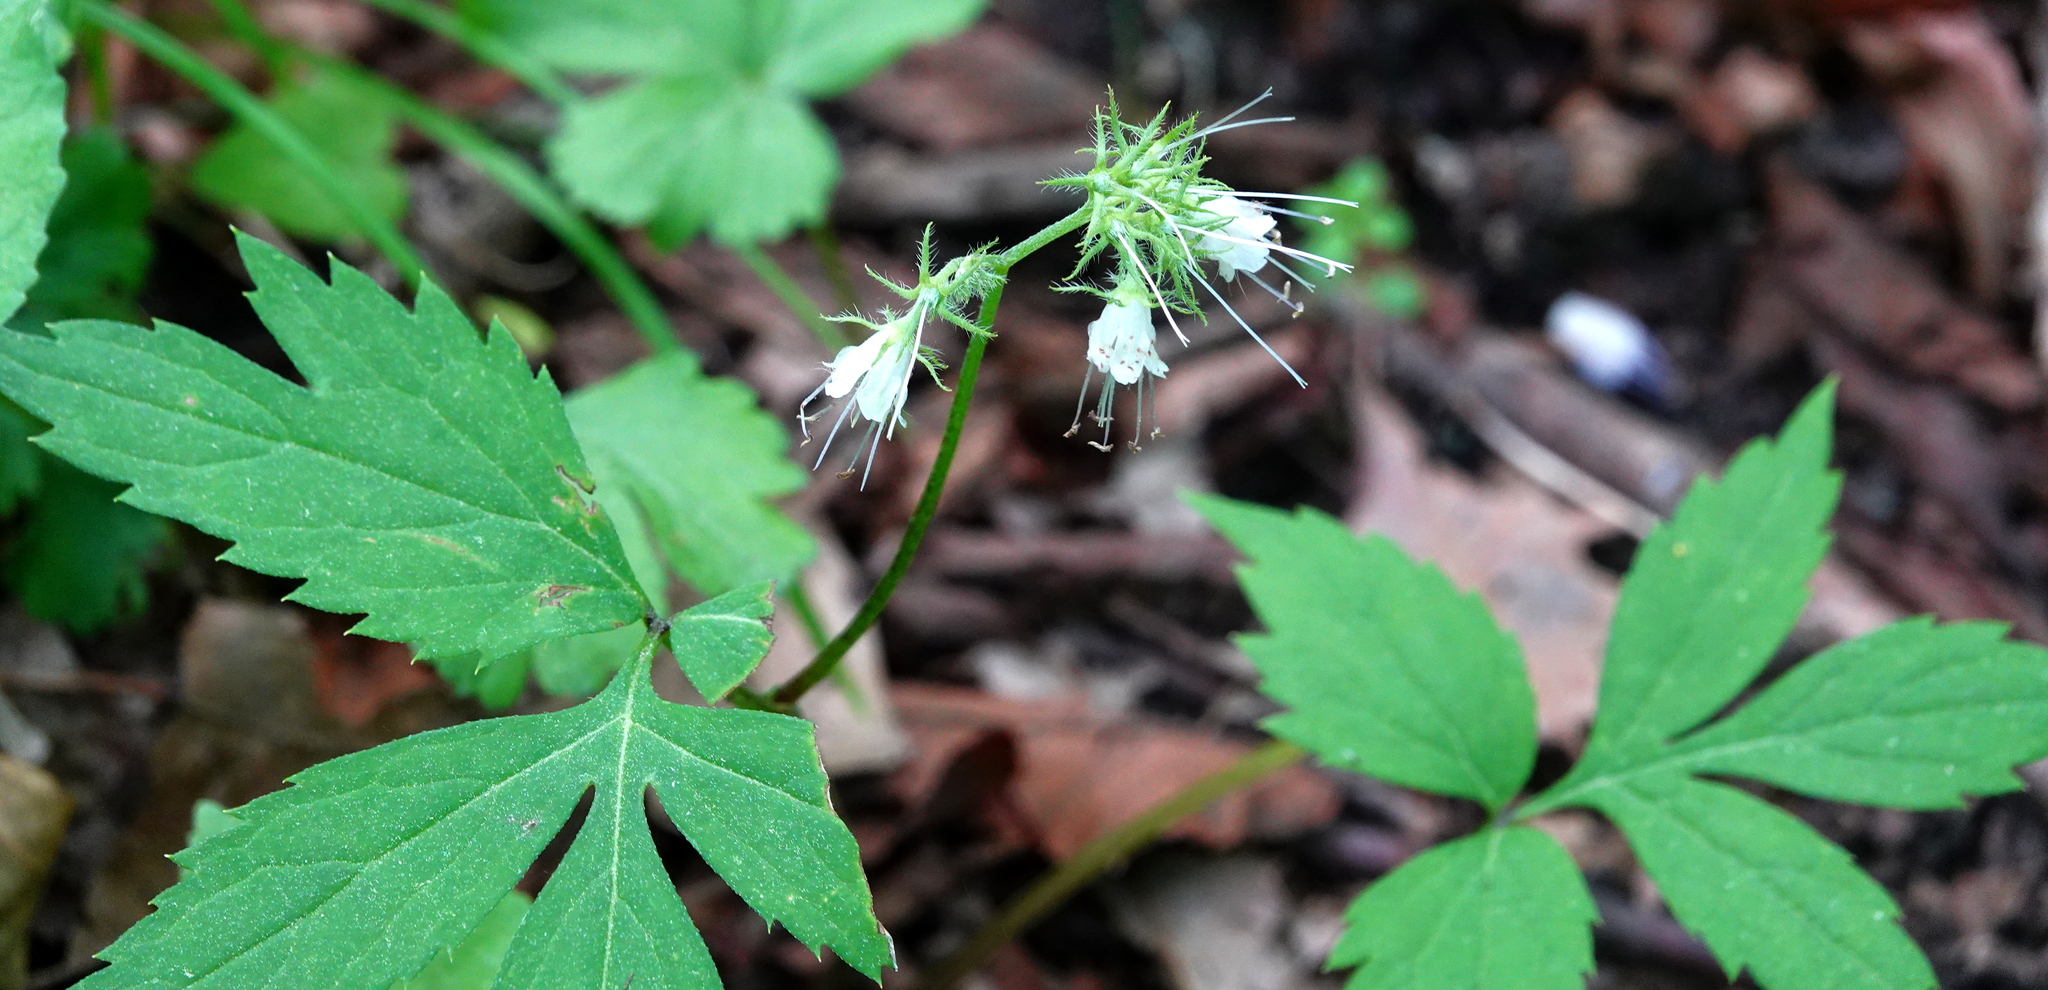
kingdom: Plantae
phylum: Tracheophyta
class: Magnoliopsida
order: Boraginales
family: Hydrophyllaceae
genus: Hydrophyllum
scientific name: Hydrophyllum virginianum
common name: Virginia waterleaf
